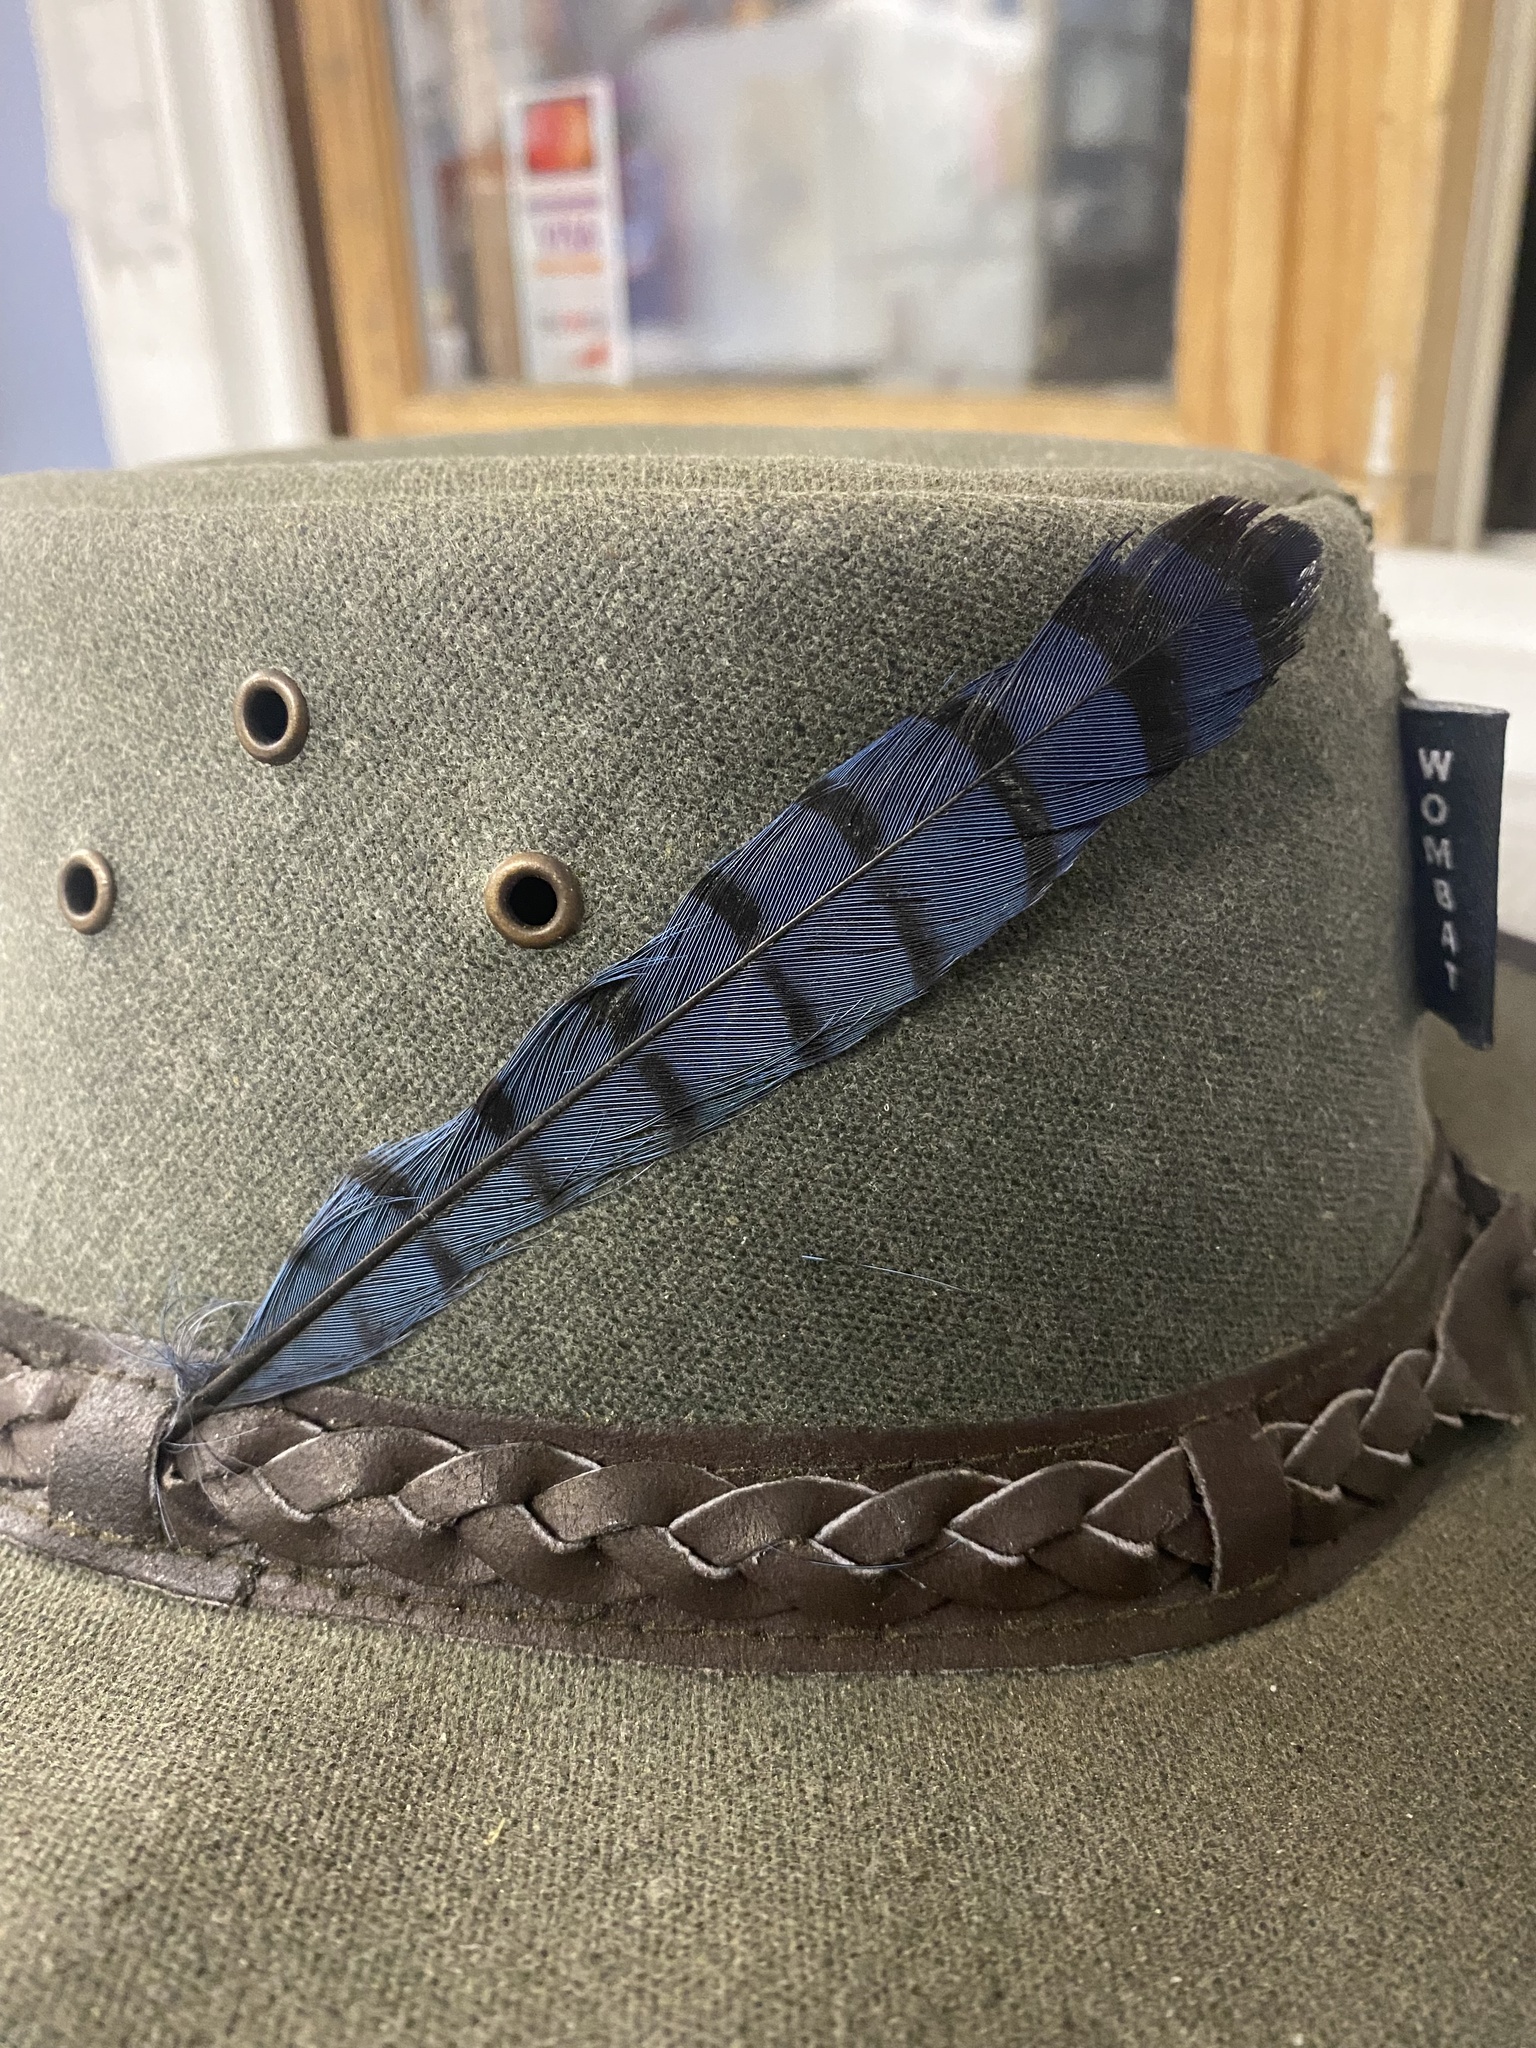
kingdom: Animalia
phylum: Chordata
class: Aves
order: Passeriformes
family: Corvidae
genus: Cyanocitta
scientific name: Cyanocitta cristata
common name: Blue jay
